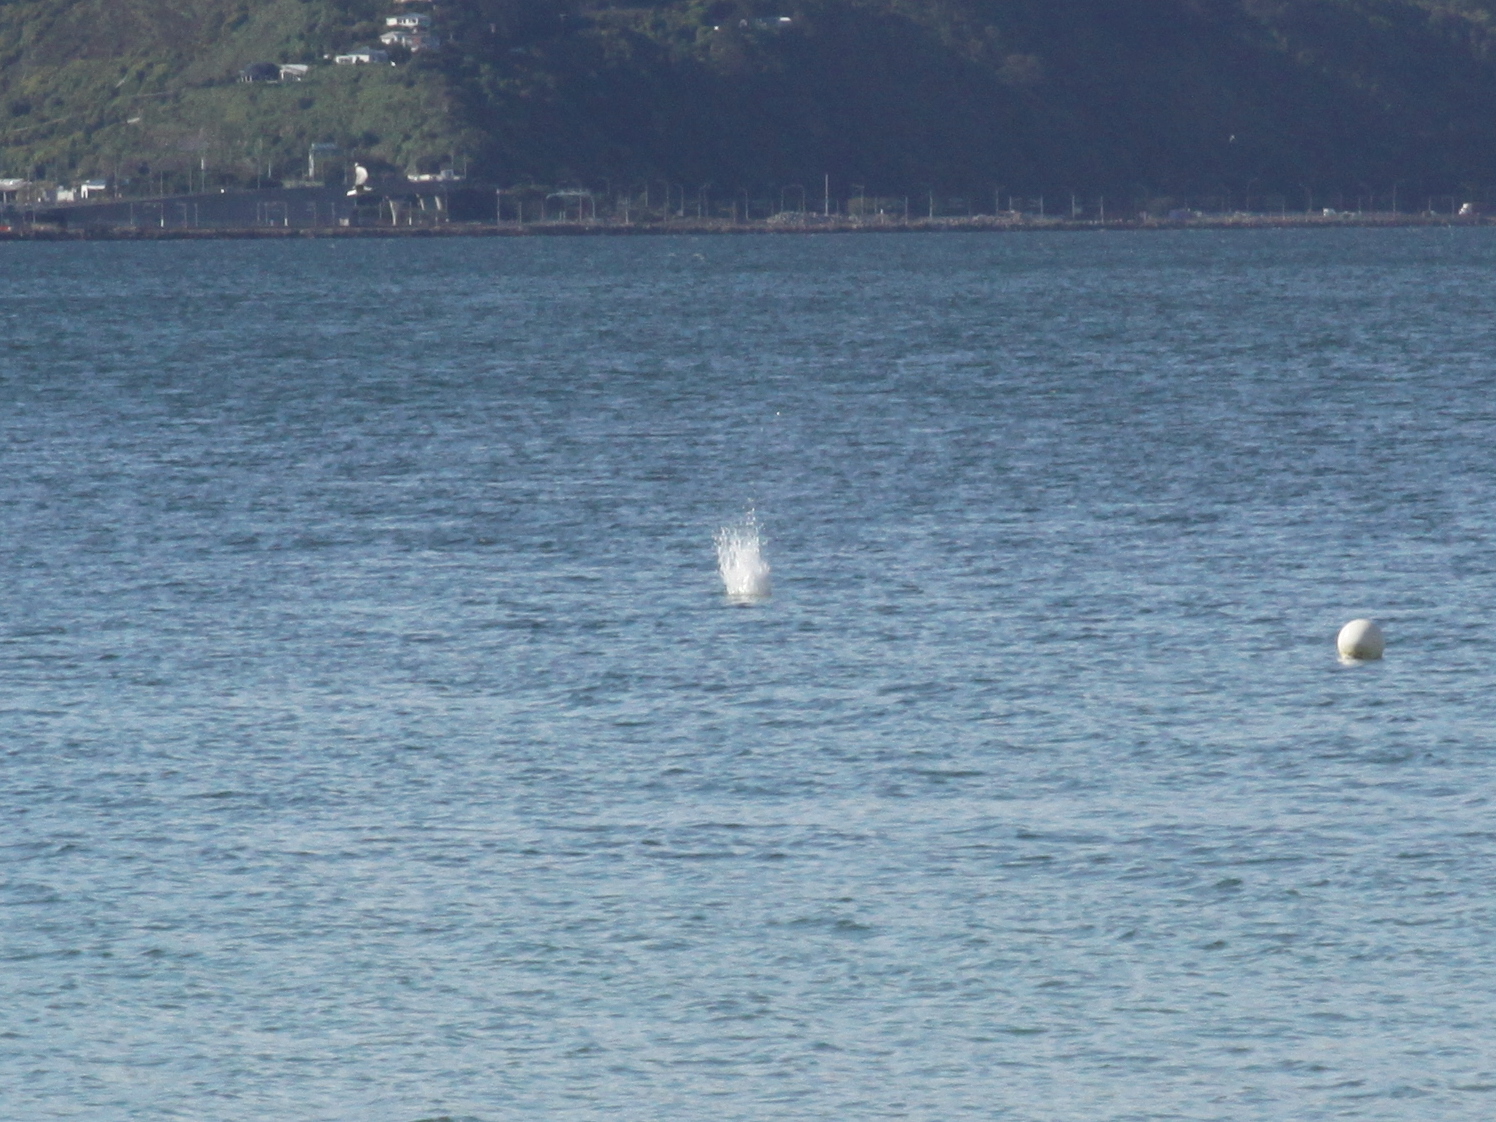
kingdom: Animalia
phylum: Chordata
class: Aves
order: Suliformes
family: Sulidae
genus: Morus
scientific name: Morus serrator
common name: Australasian gannet
